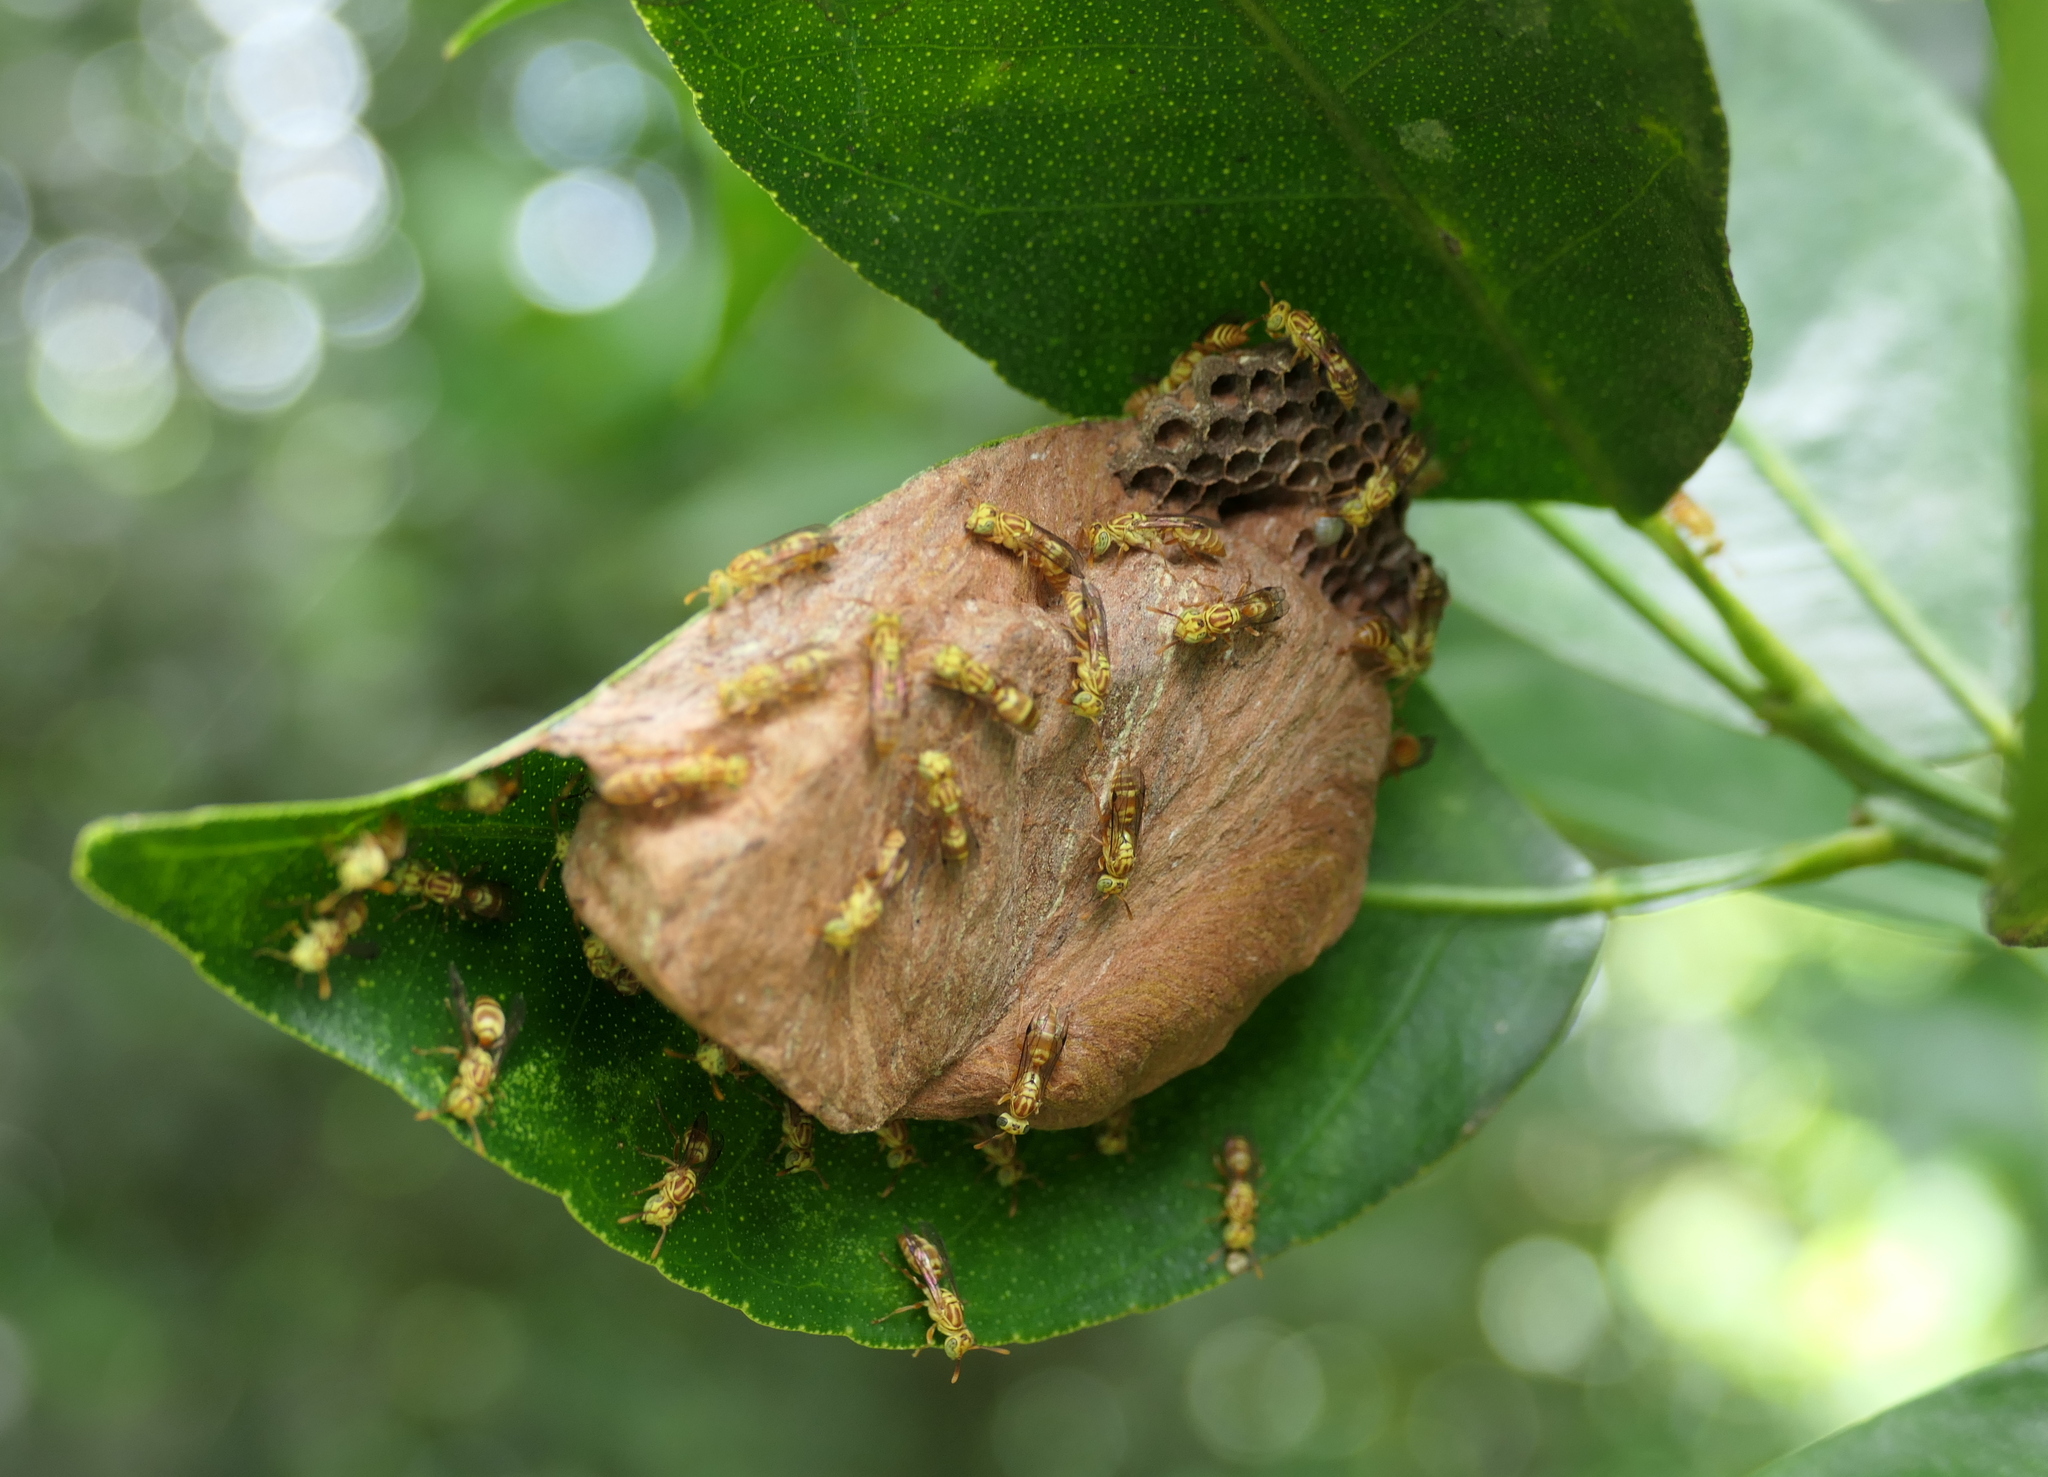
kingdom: Animalia
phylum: Arthropoda
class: Insecta
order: Hymenoptera
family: Vespidae
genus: Protopolybia
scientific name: Protopolybia potiguara
